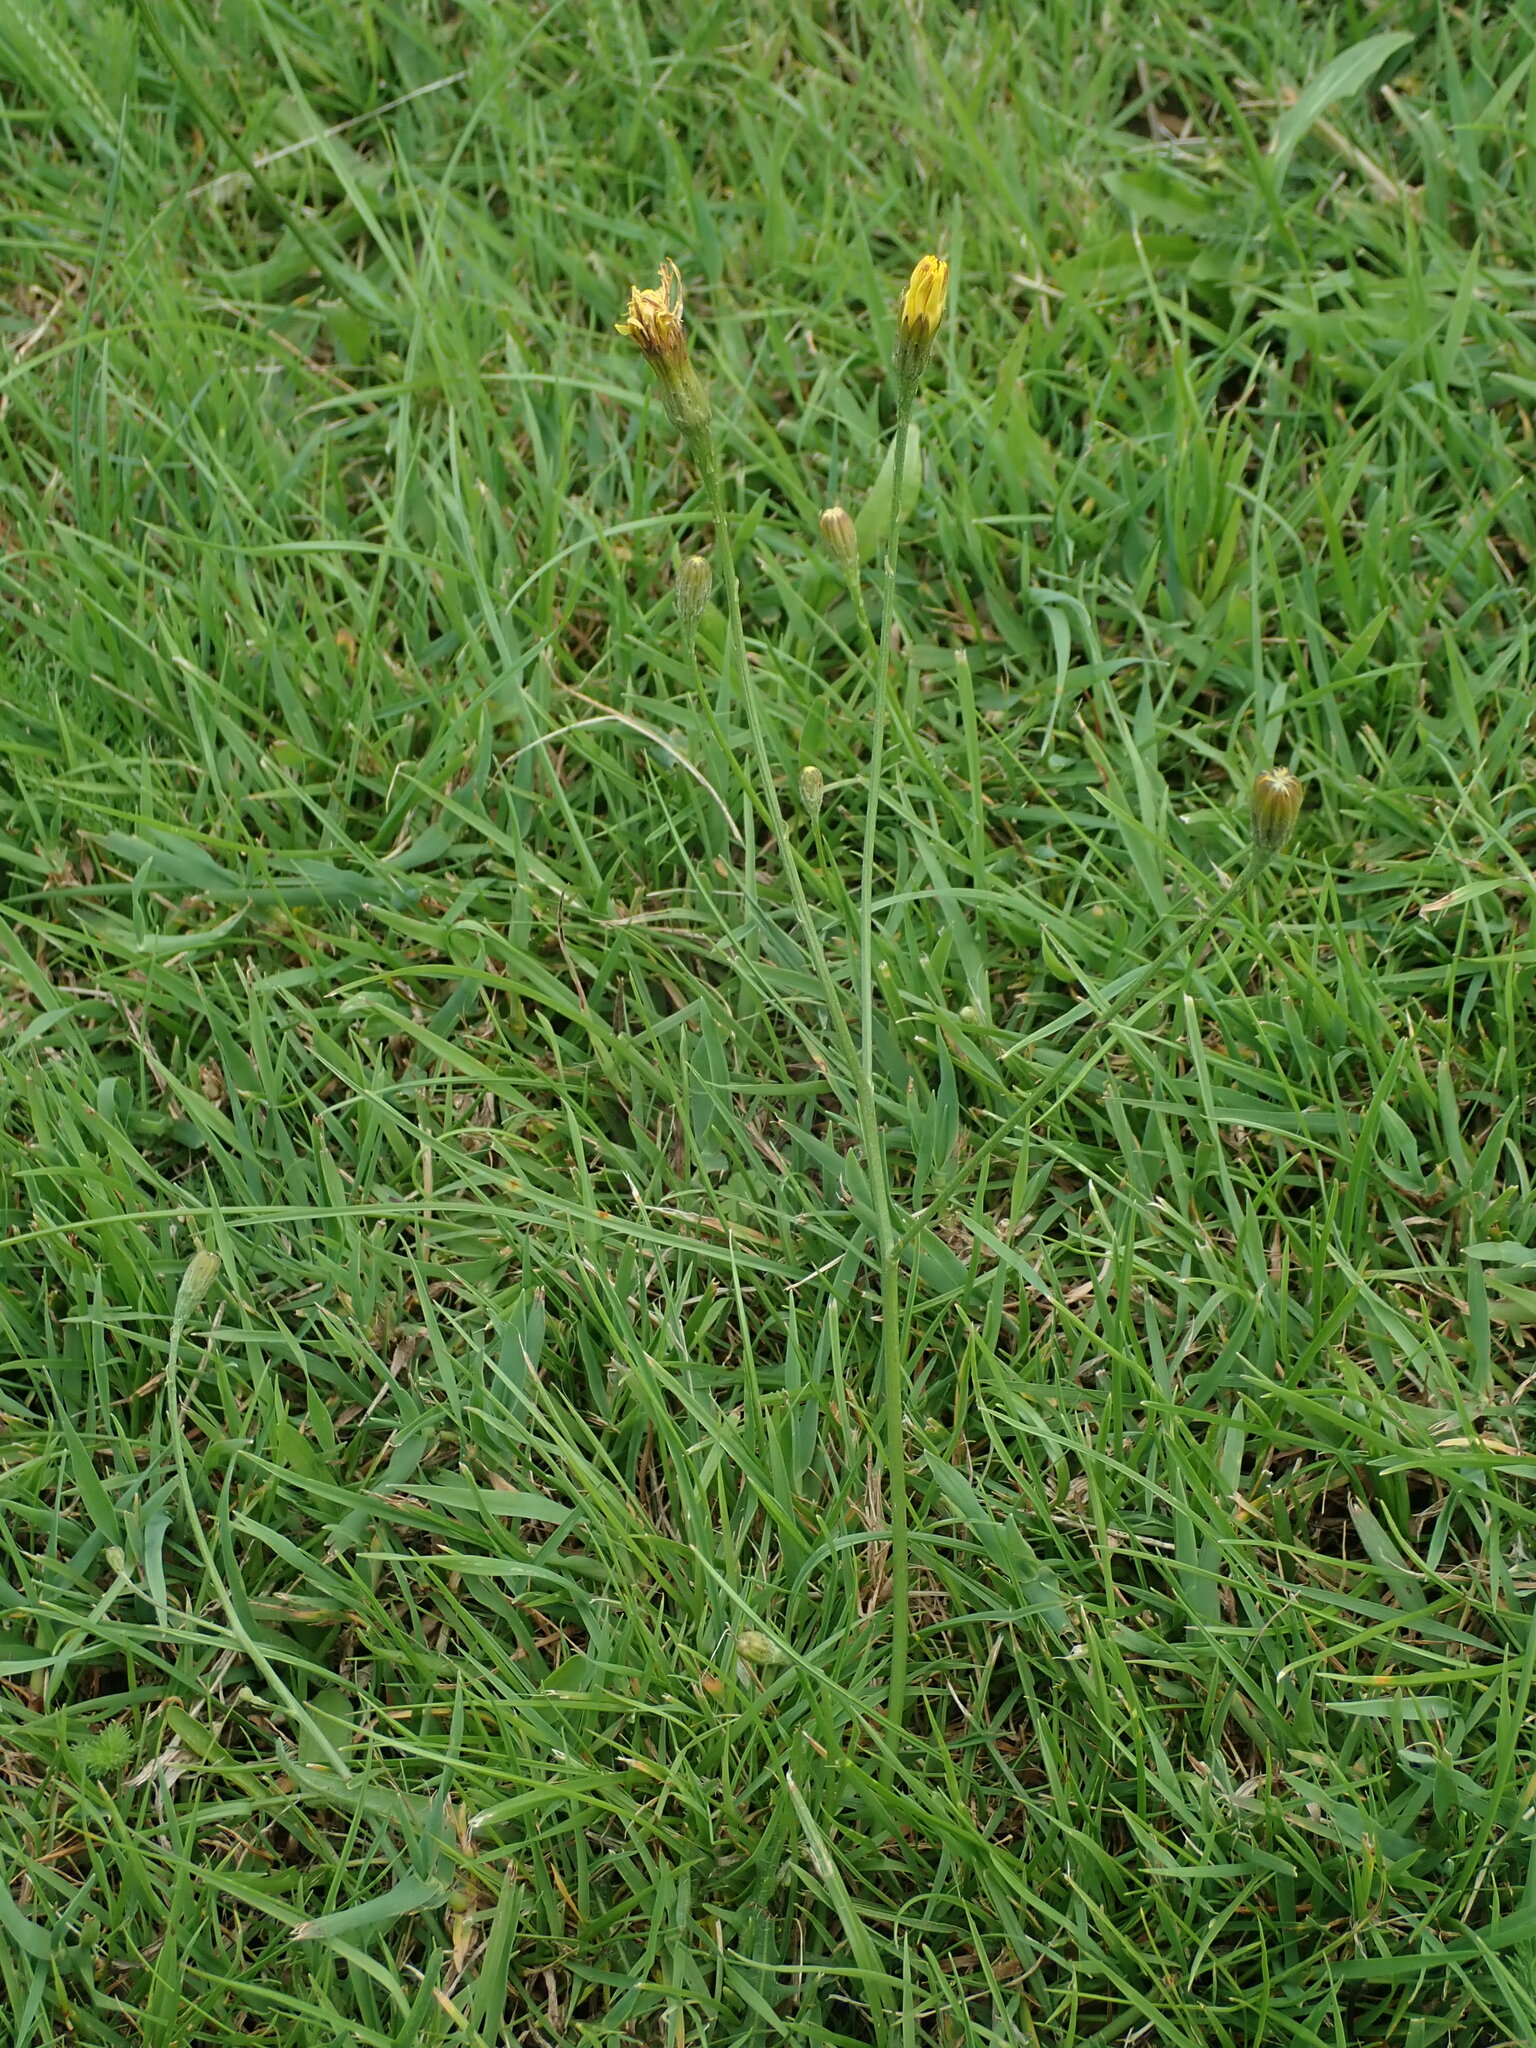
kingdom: Plantae
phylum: Tracheophyta
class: Magnoliopsida
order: Asterales
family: Asteraceae
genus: Scorzoneroides
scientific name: Scorzoneroides autumnalis
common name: Autumn hawkbit
